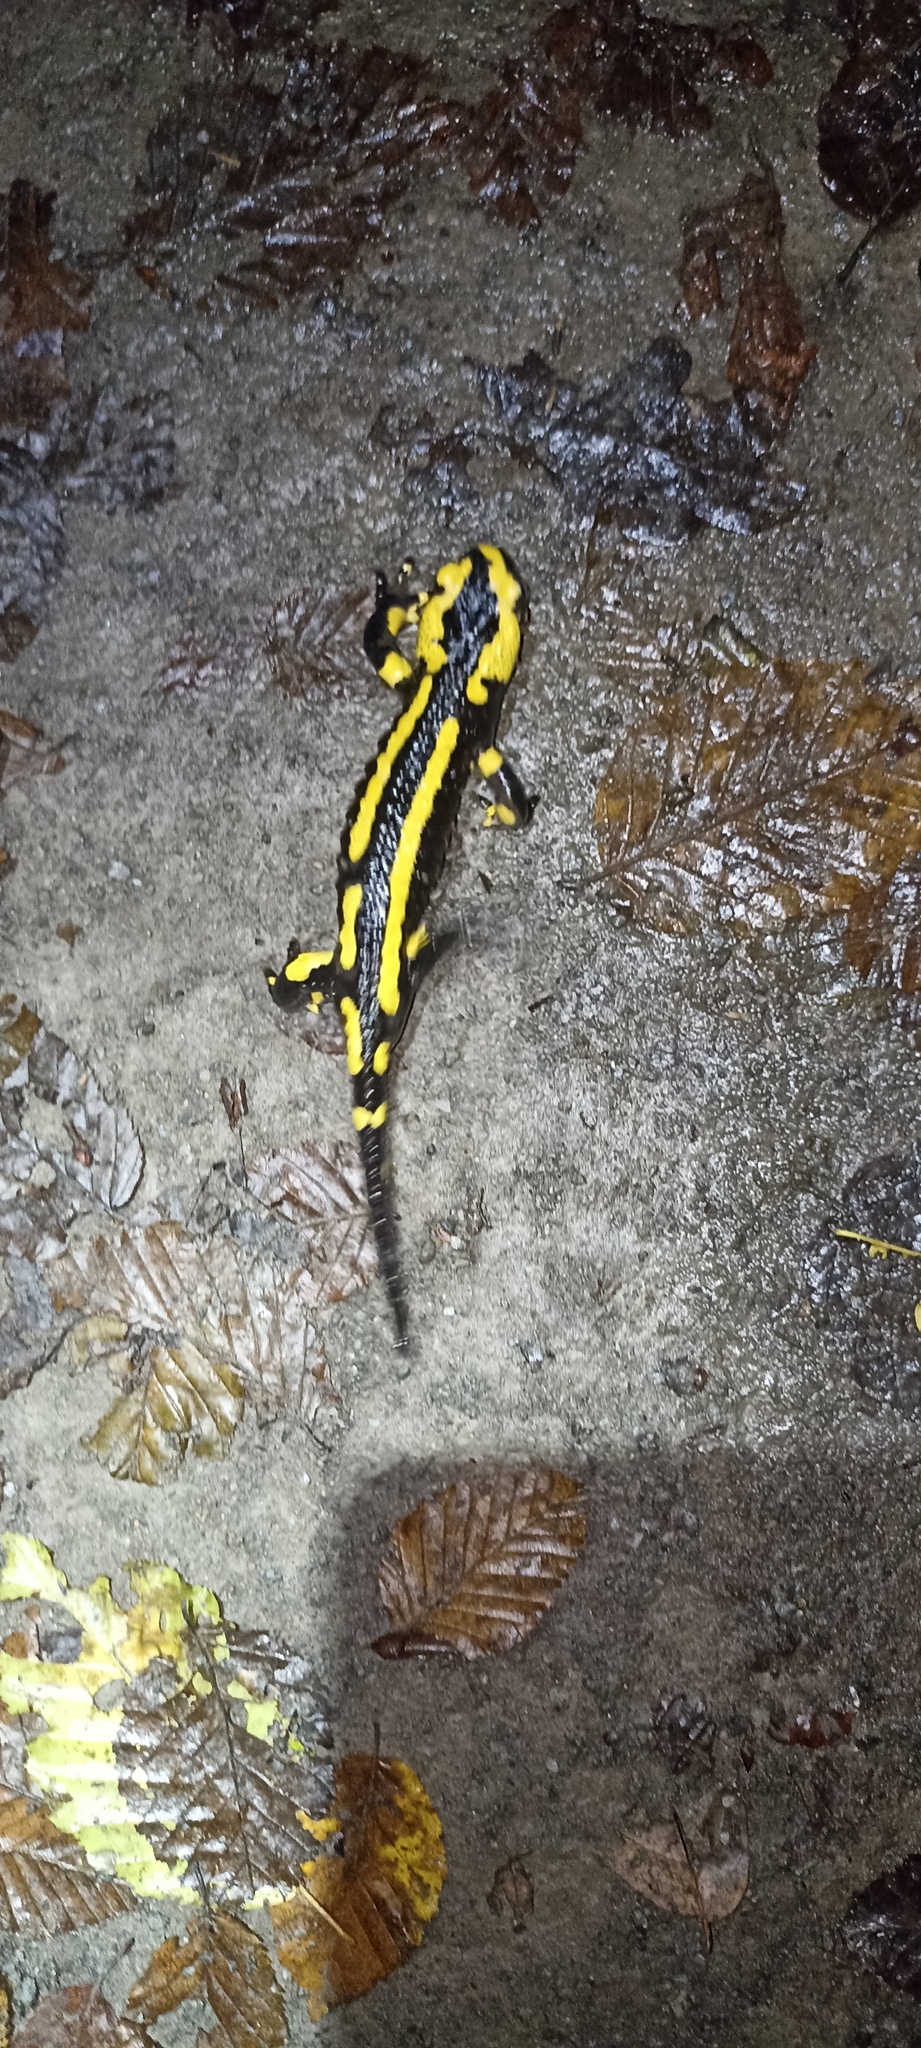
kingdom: Animalia
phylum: Chordata
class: Amphibia
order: Caudata
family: Salamandridae
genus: Salamandra
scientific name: Salamandra salamandra
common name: Fire salamander
